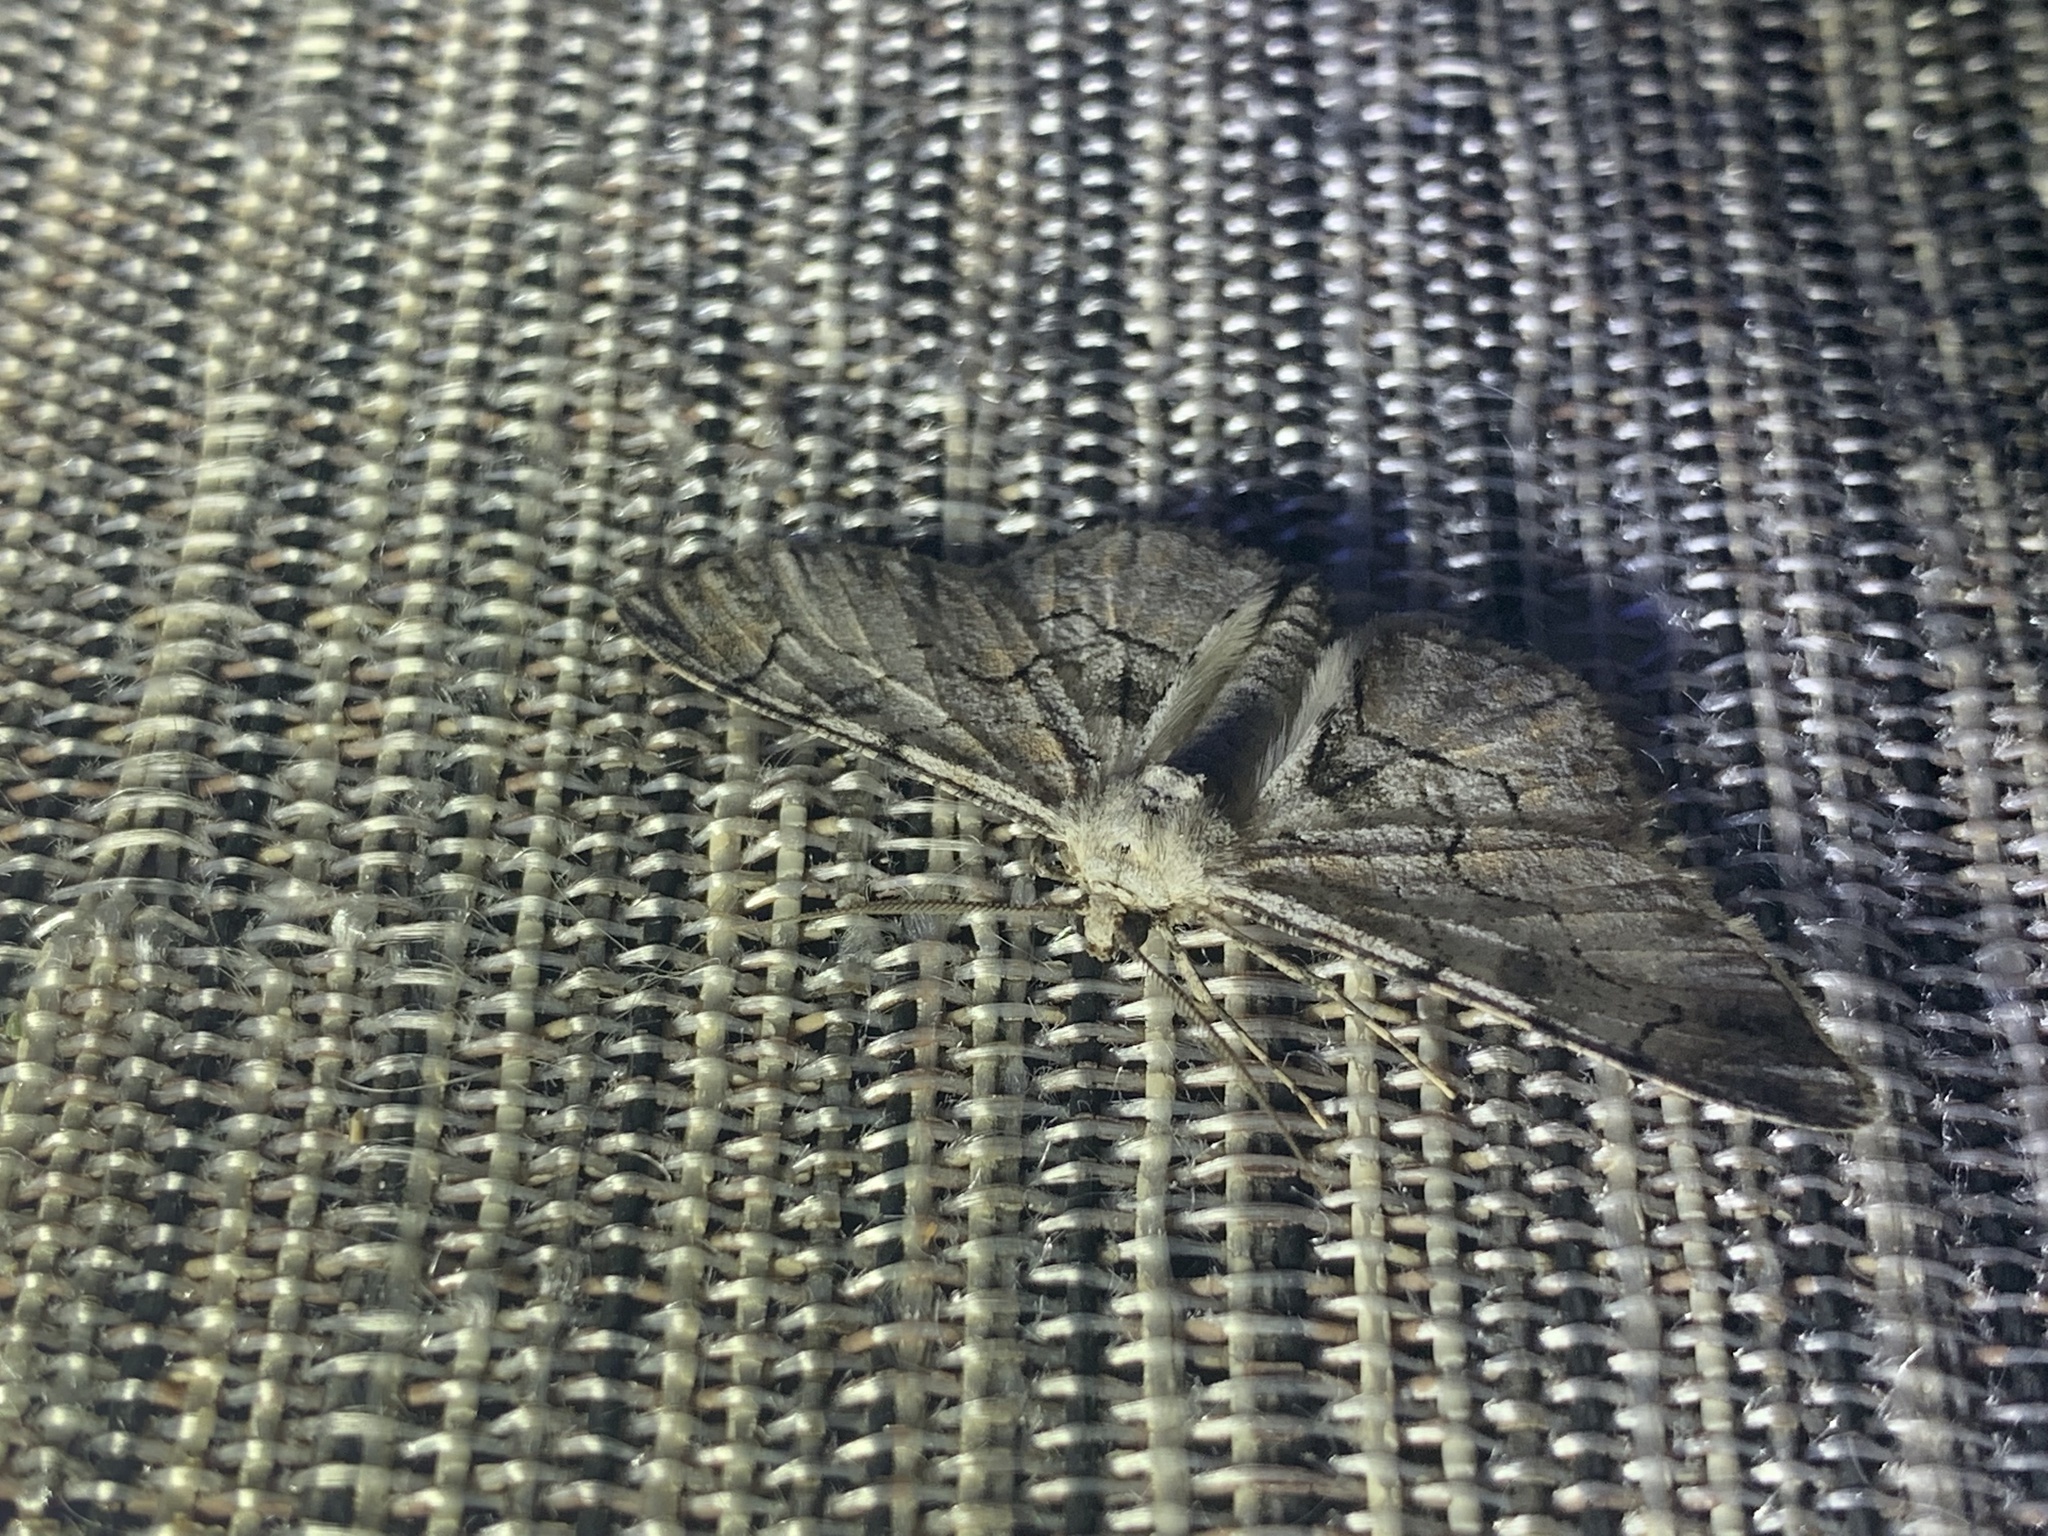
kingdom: Animalia
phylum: Arthropoda
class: Insecta
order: Lepidoptera
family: Geometridae
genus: Iridopsis
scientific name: Iridopsis larvaria
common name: Bent-line gray
